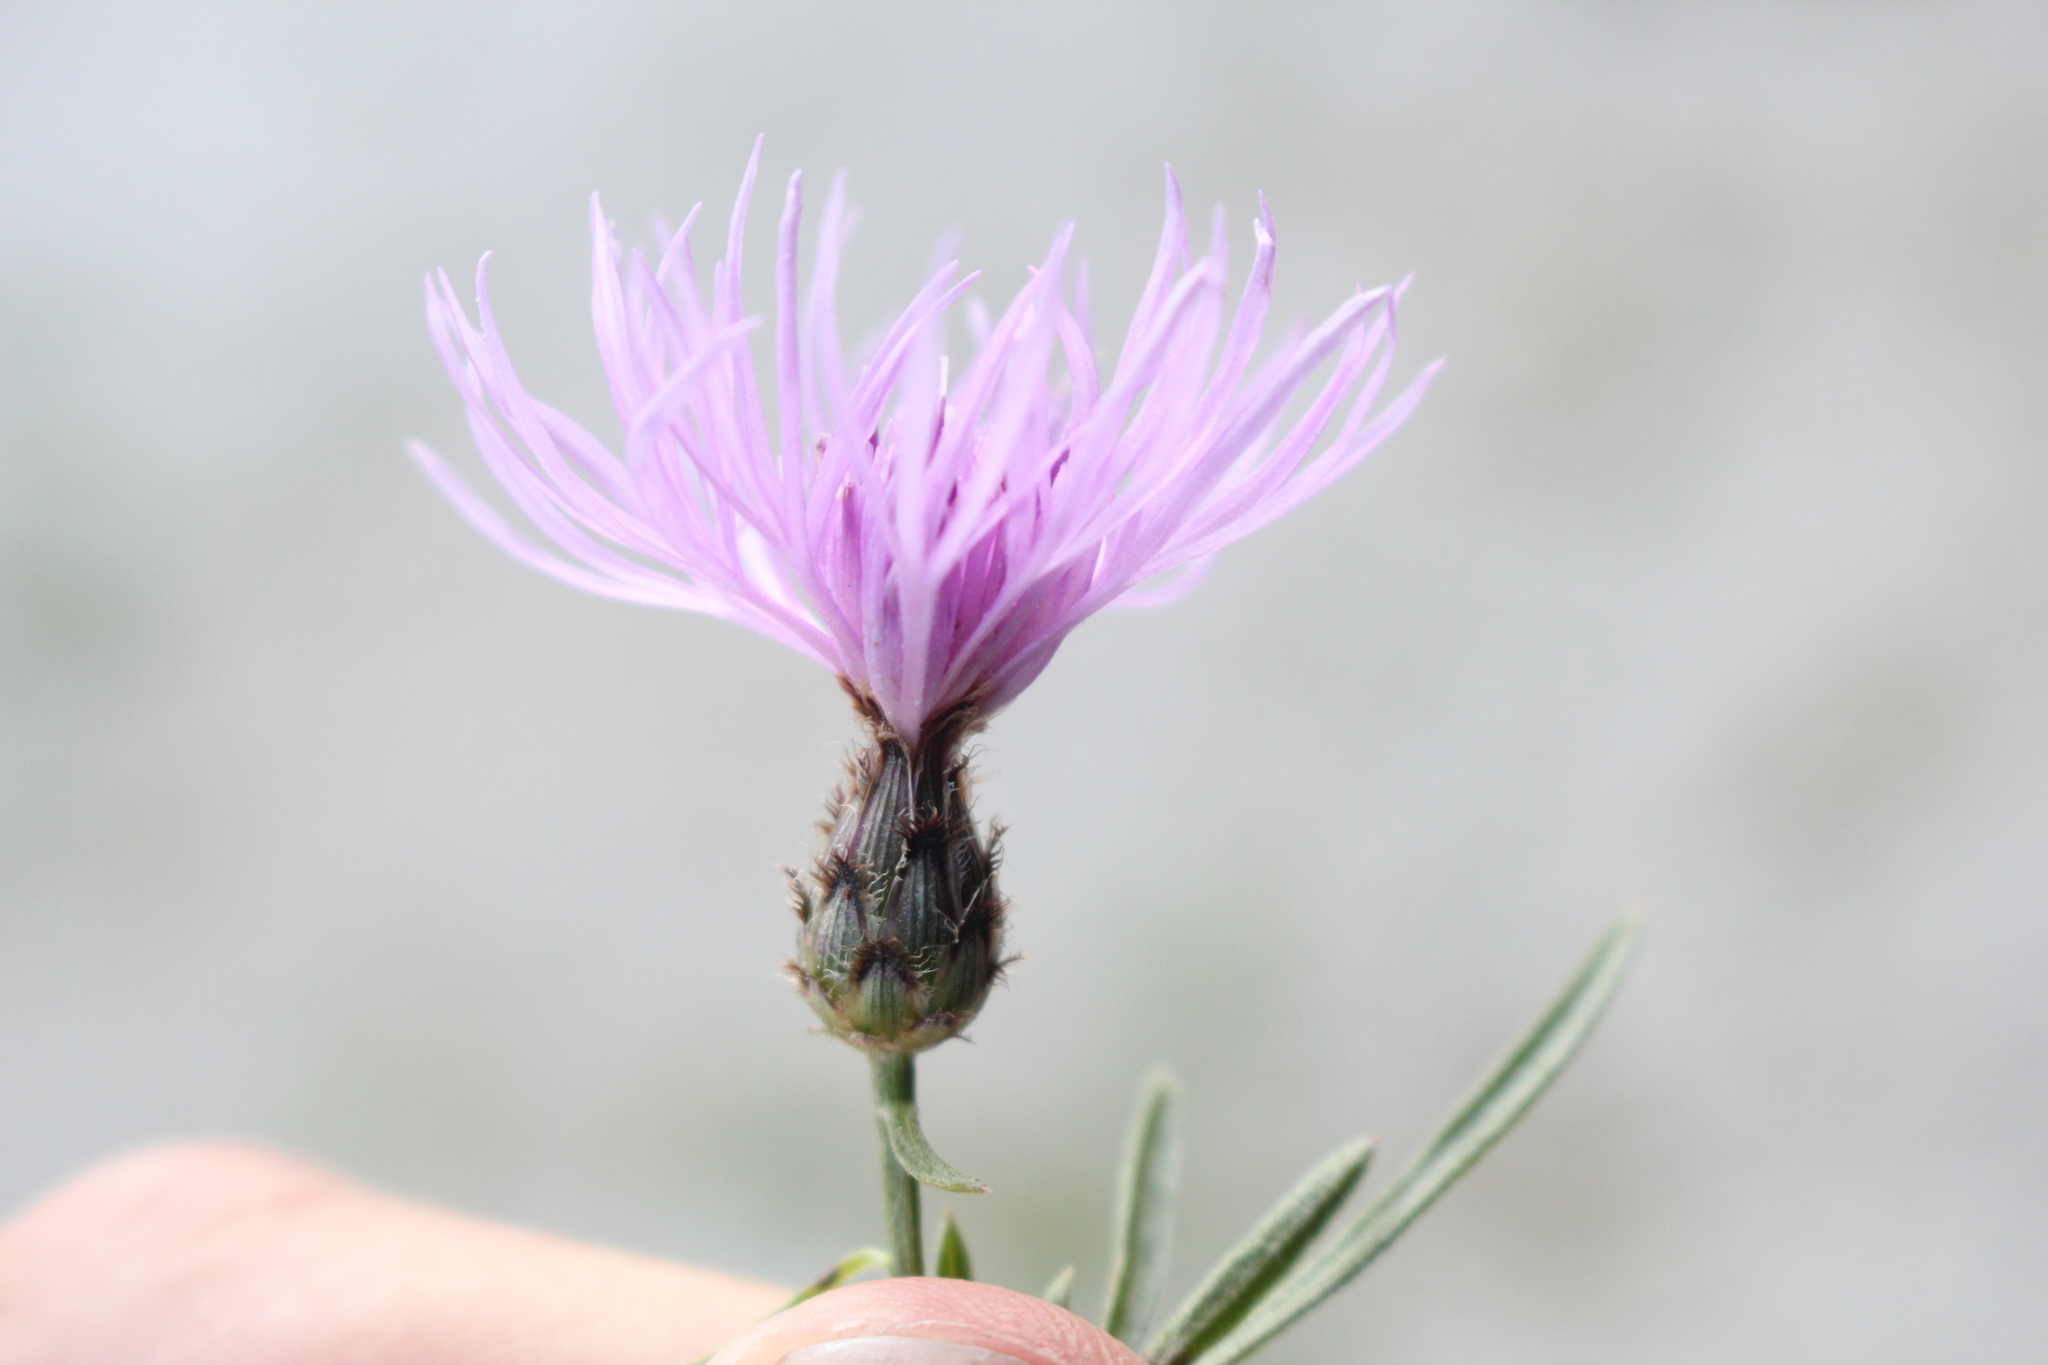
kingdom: Plantae
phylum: Tracheophyta
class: Magnoliopsida
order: Asterales
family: Asteraceae
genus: Centaurea
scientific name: Centaurea stoebe
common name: Spotted knapweed
